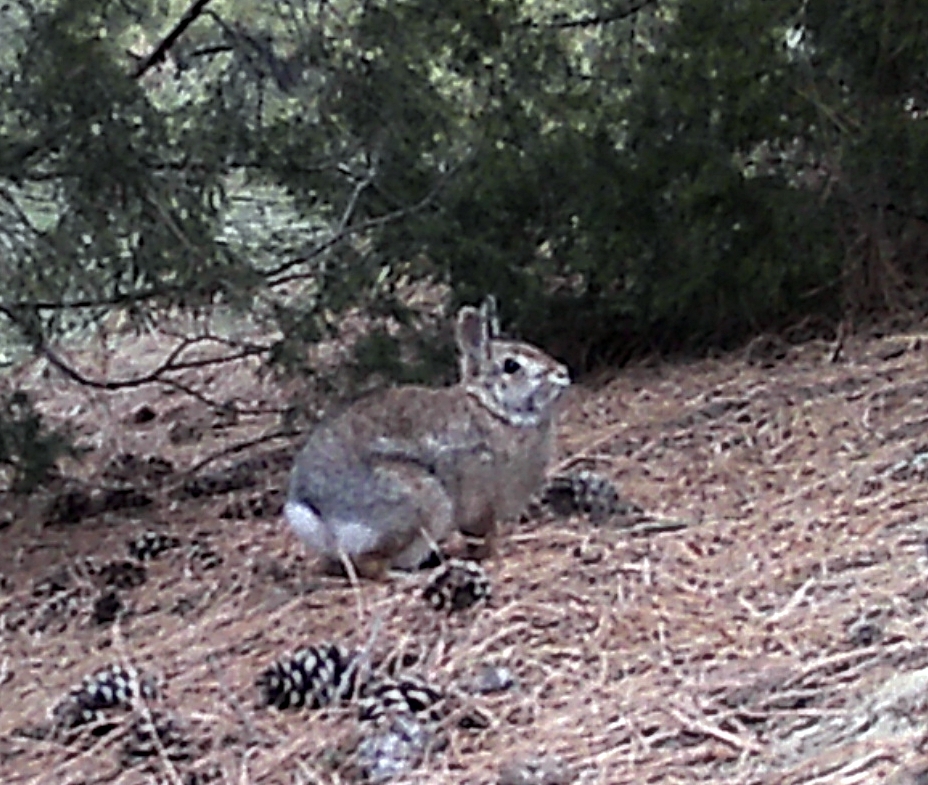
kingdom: Animalia
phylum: Chordata
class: Mammalia
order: Lagomorpha
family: Leporidae
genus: Sylvilagus
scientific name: Sylvilagus floridanus
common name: Eastern cottontail
